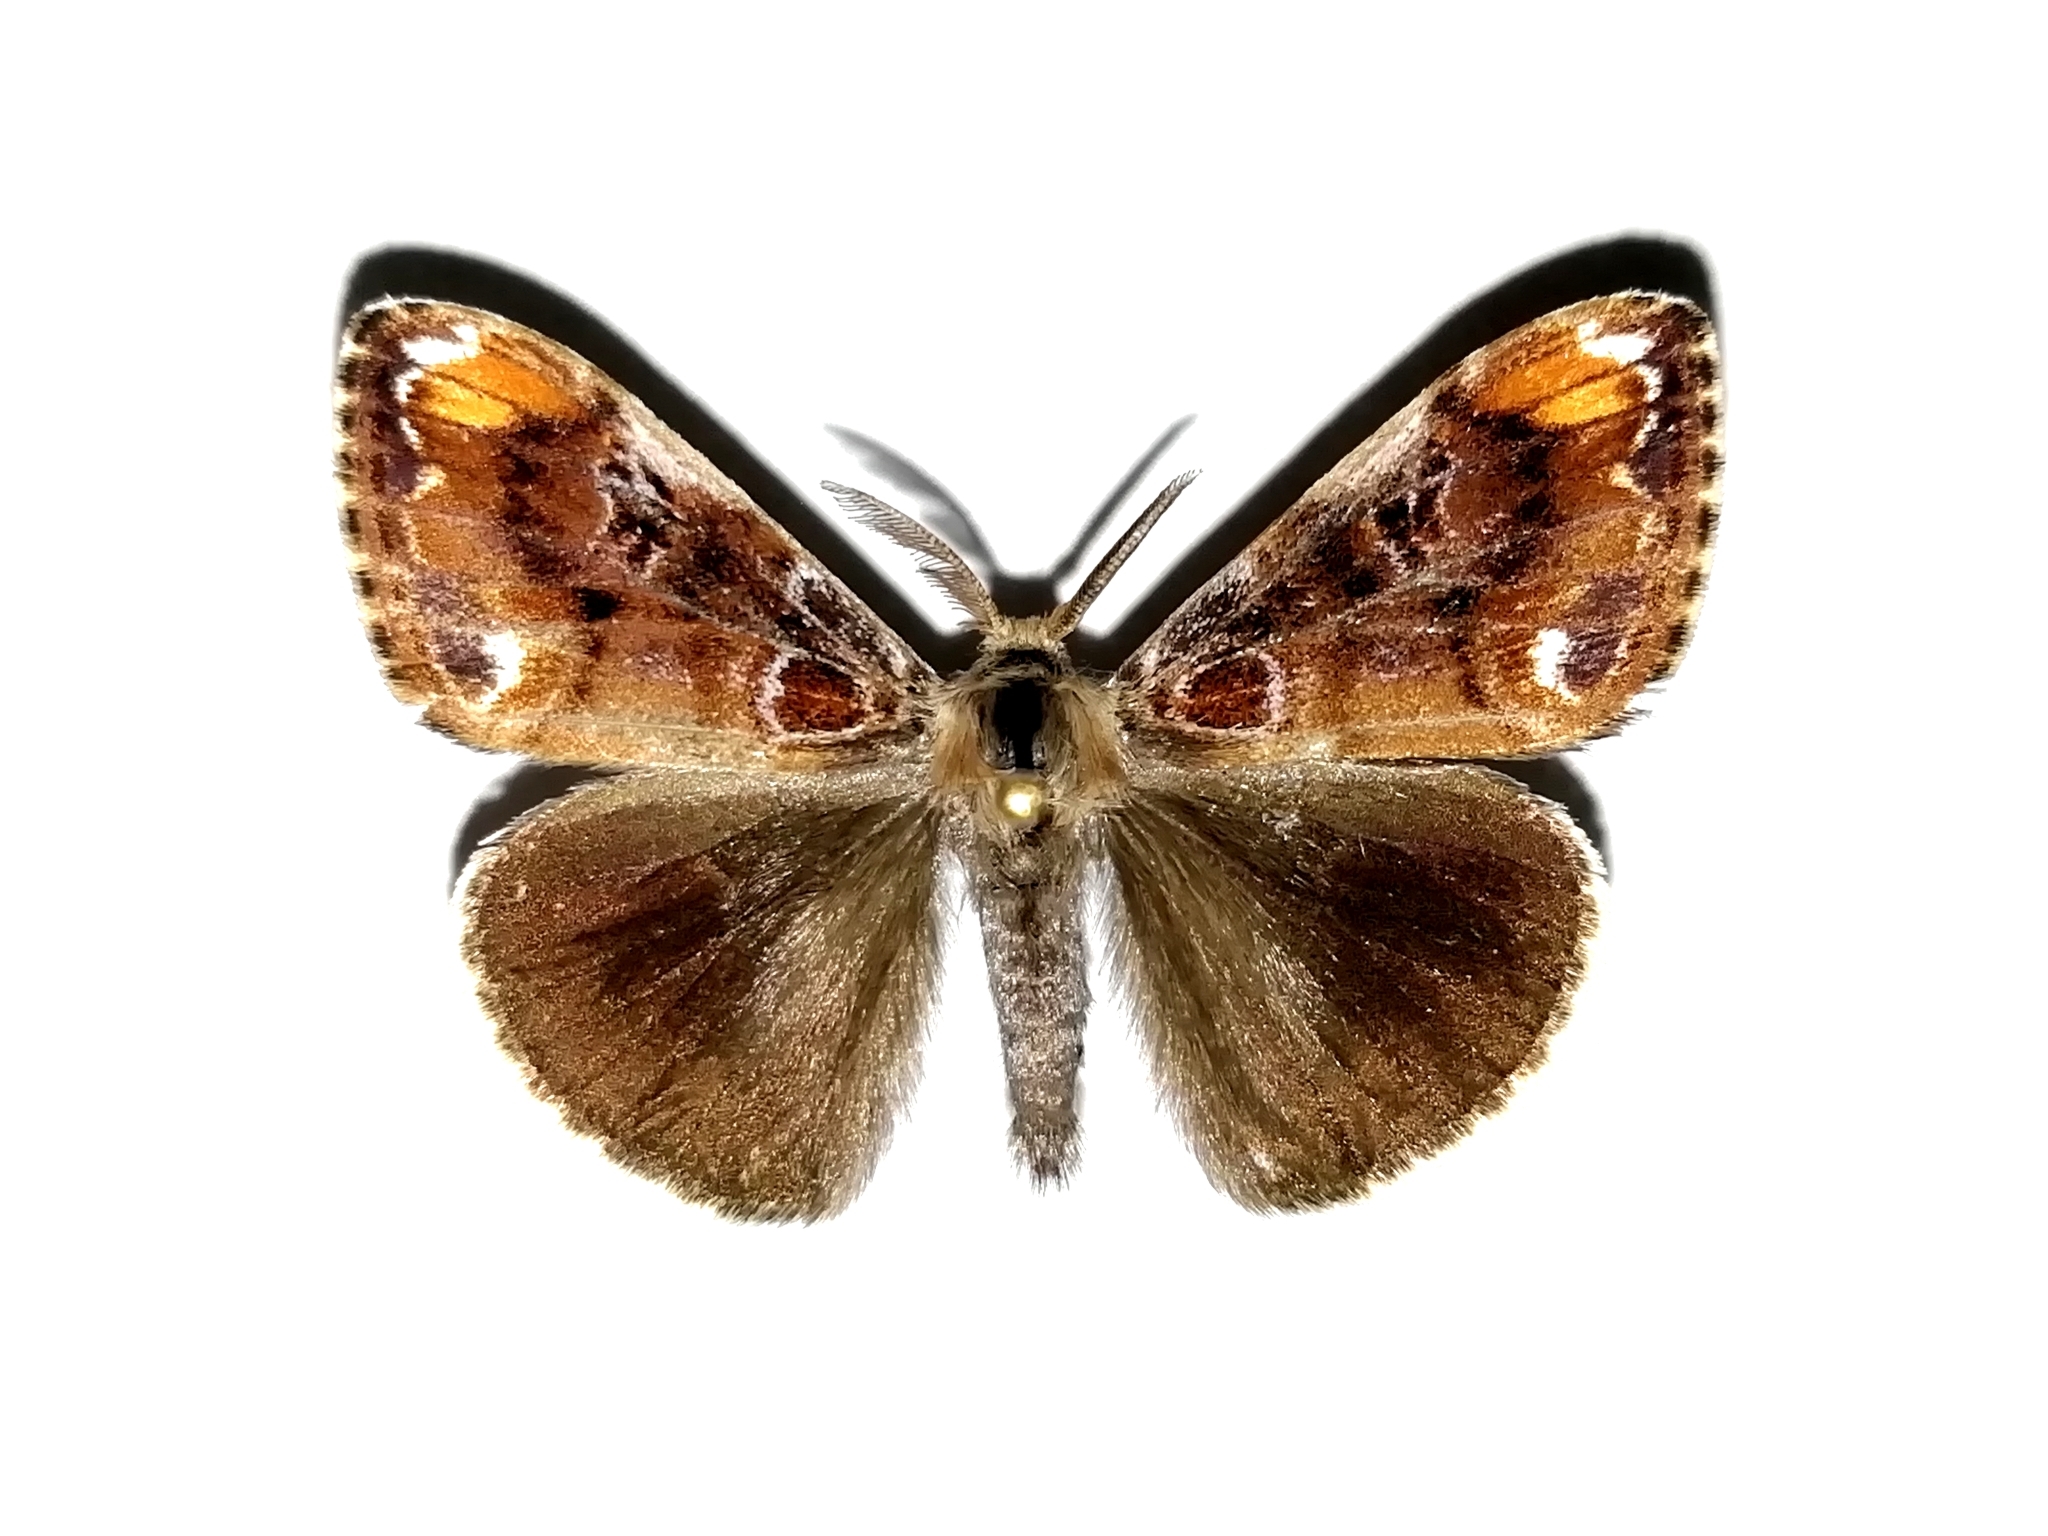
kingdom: Animalia
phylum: Arthropoda
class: Insecta
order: Lepidoptera
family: Erebidae
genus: Orgyia
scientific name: Orgyia recens
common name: Scarce vapourer
